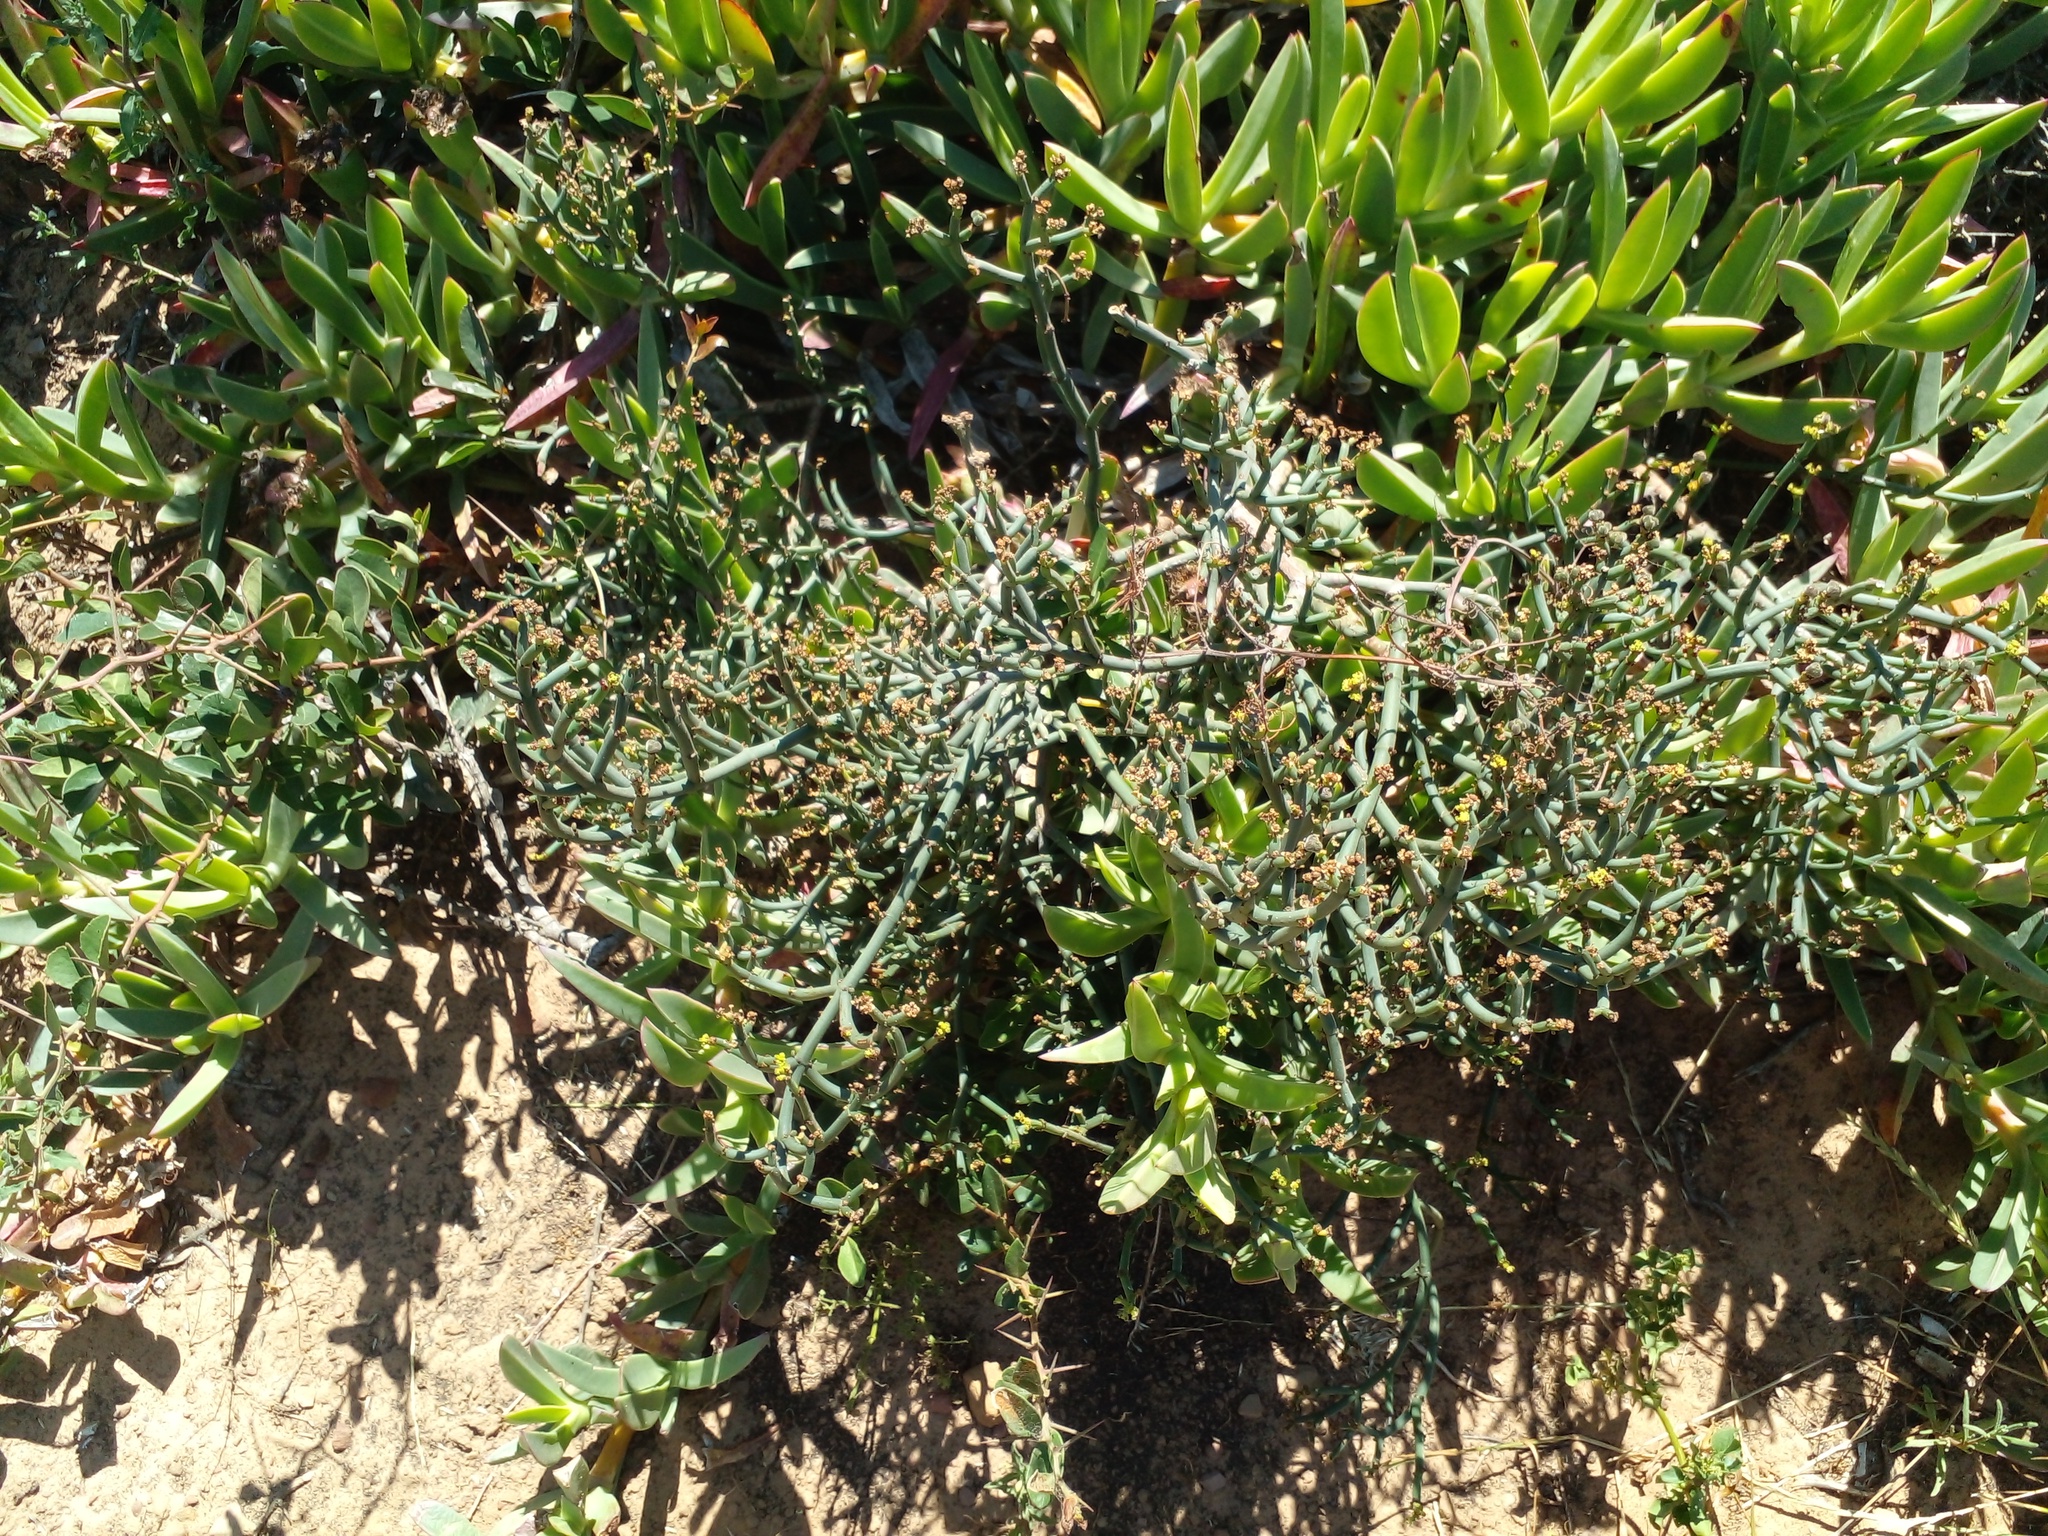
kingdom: Plantae
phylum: Tracheophyta
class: Magnoliopsida
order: Malpighiales
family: Euphorbiaceae
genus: Euphorbia
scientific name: Euphorbia burmanni
